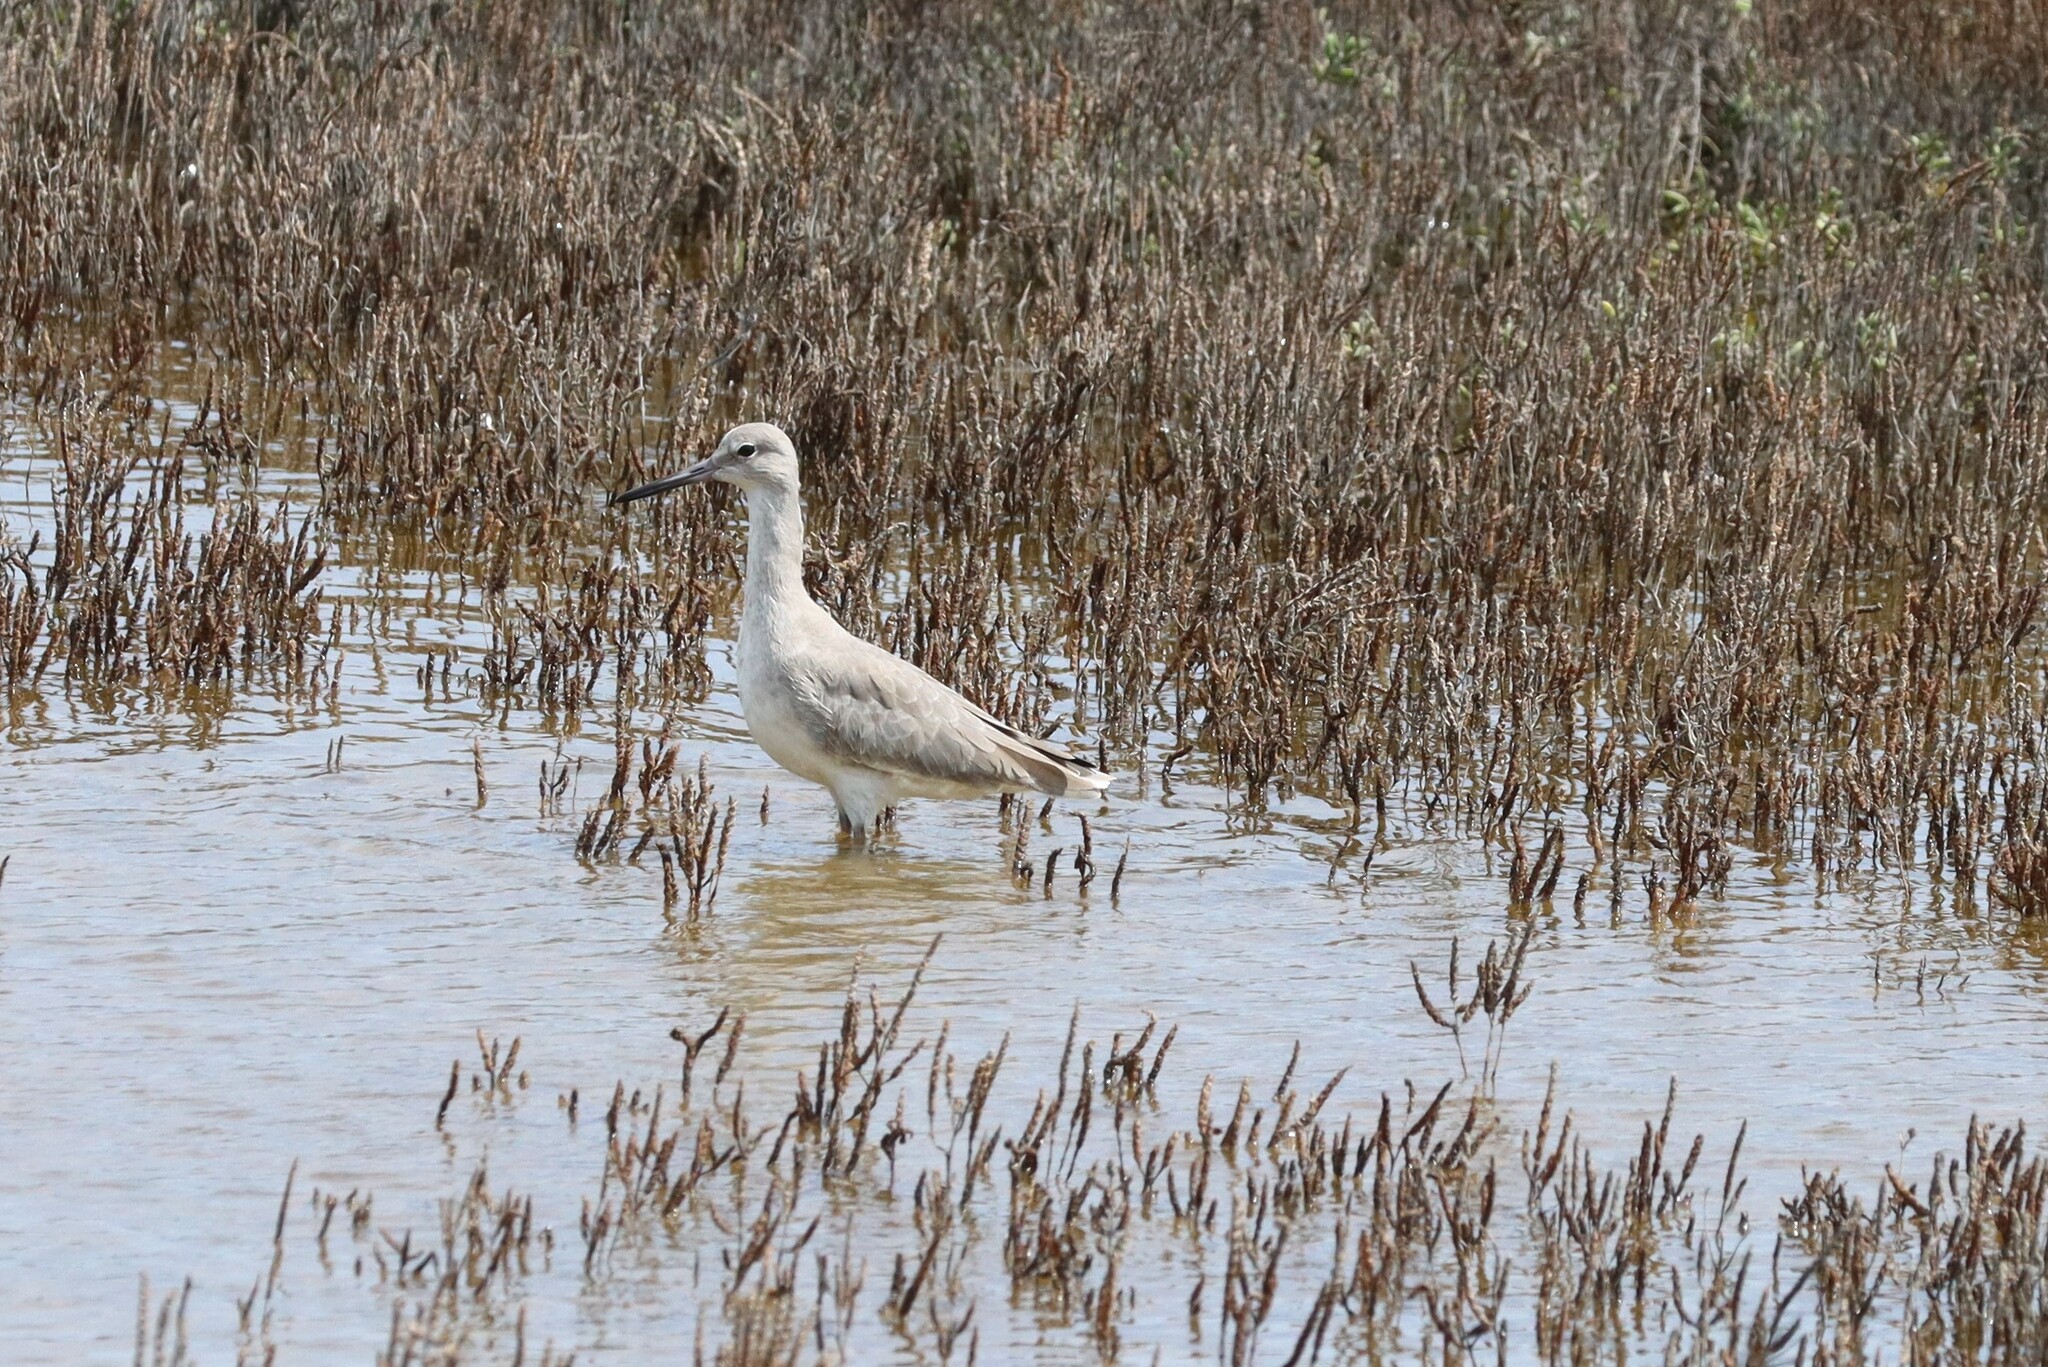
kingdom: Animalia
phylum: Chordata
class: Aves
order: Charadriiformes
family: Scolopacidae
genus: Tringa
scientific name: Tringa semipalmata
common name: Willet
